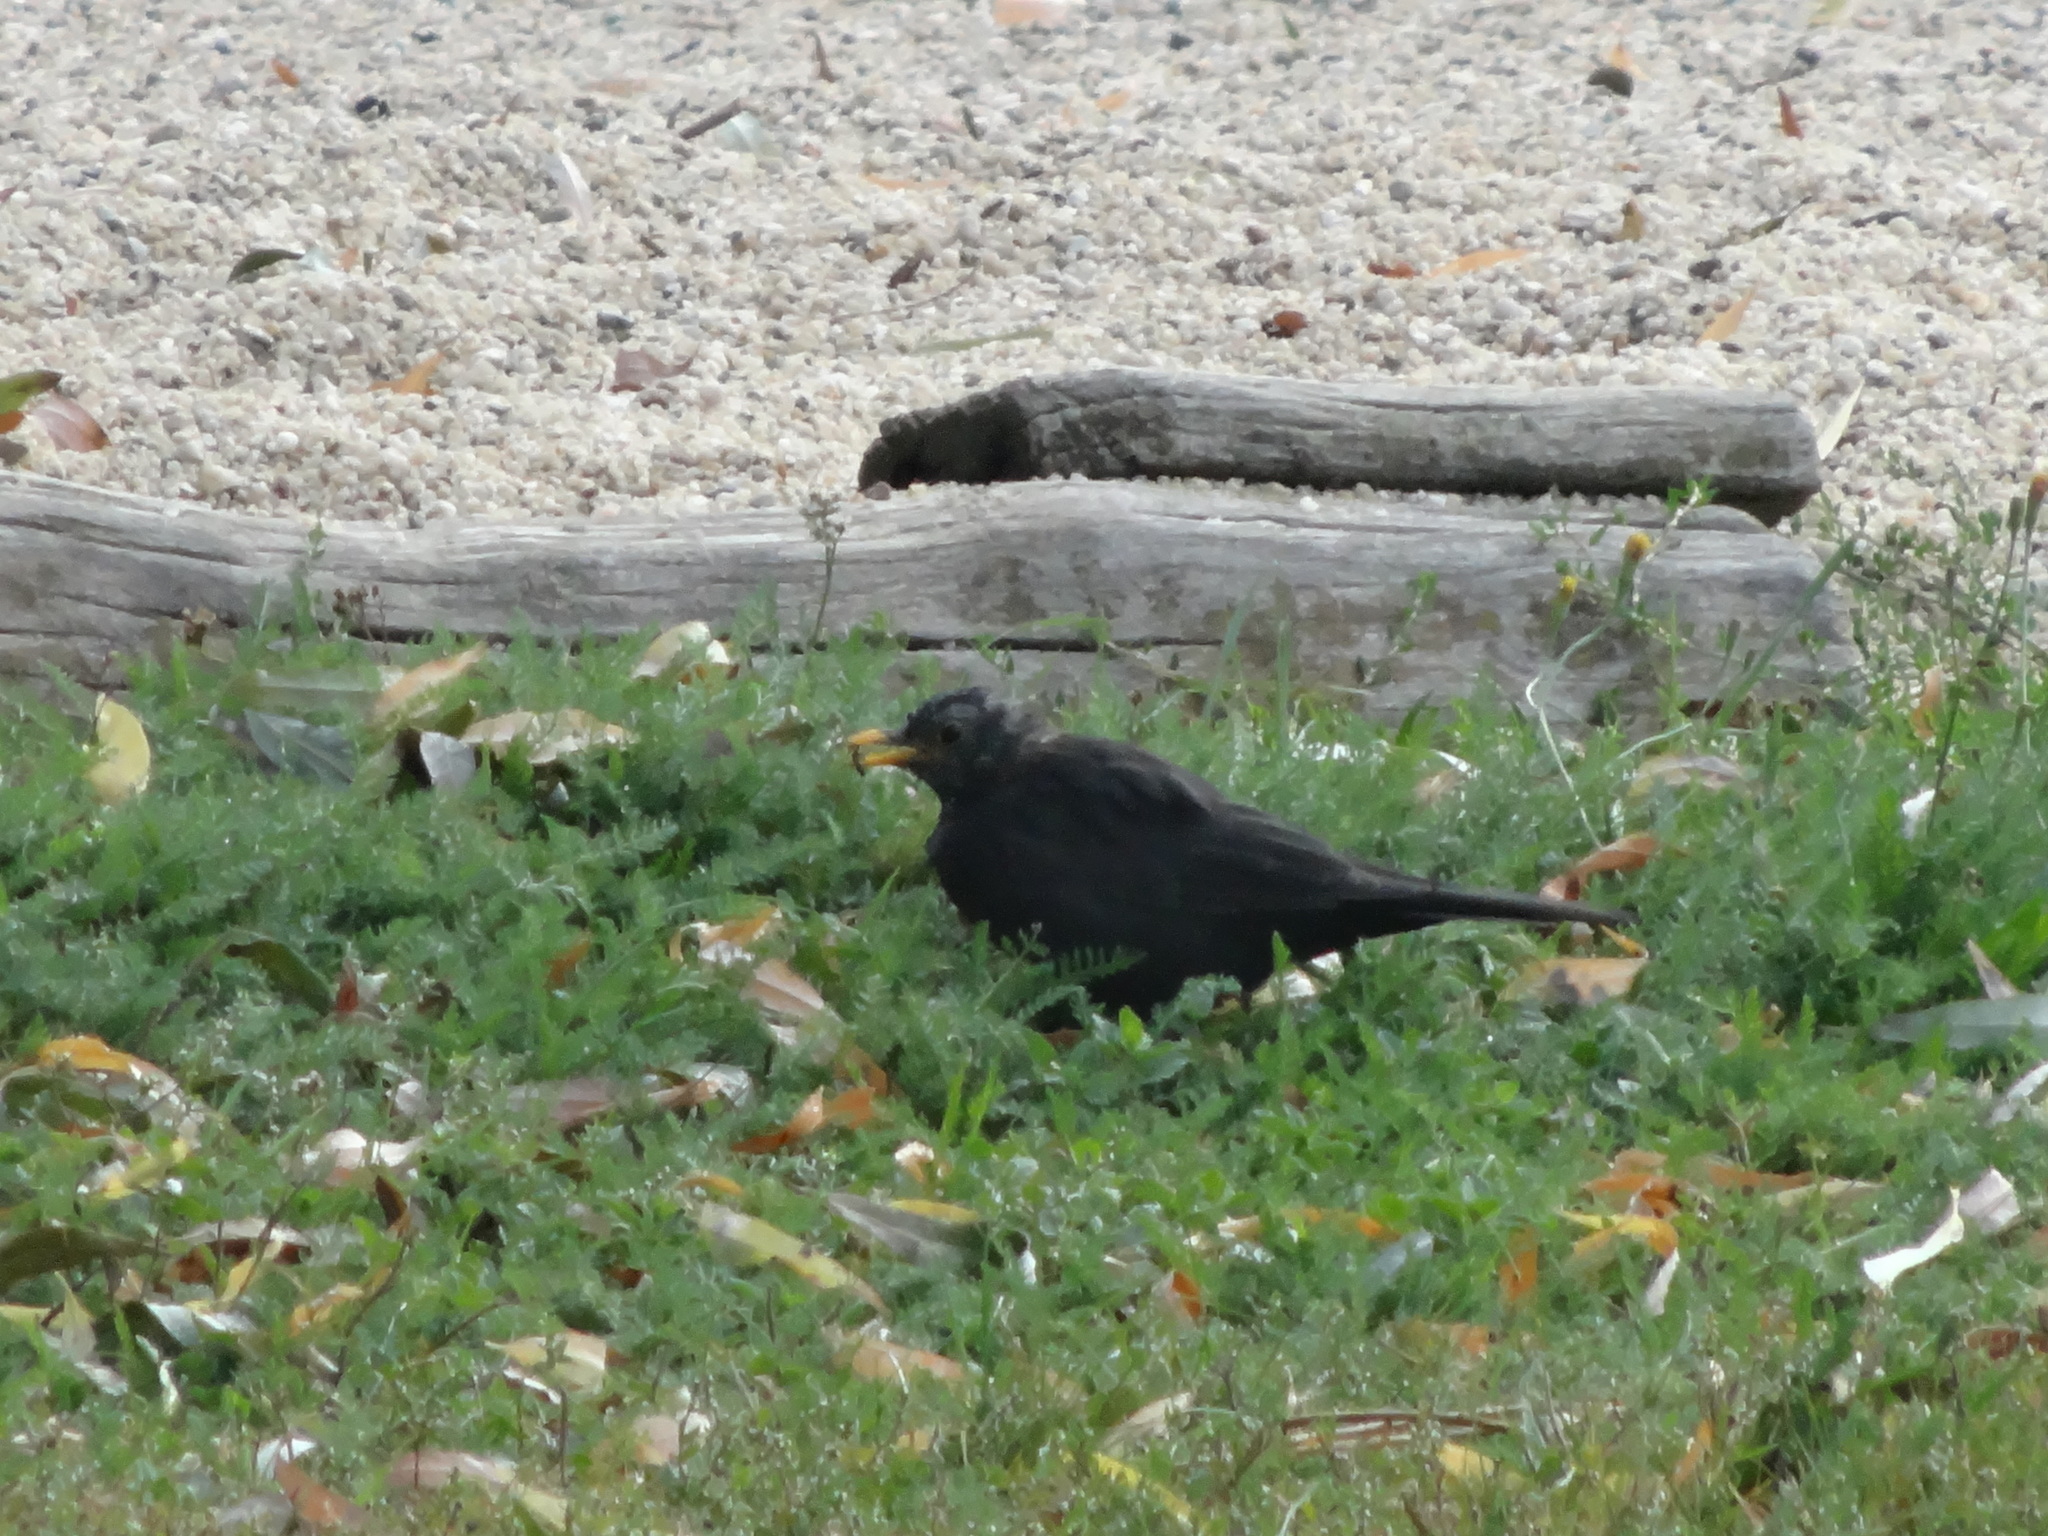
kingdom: Animalia
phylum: Chordata
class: Aves
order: Passeriformes
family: Turdidae
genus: Turdus
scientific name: Turdus merula
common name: Common blackbird
